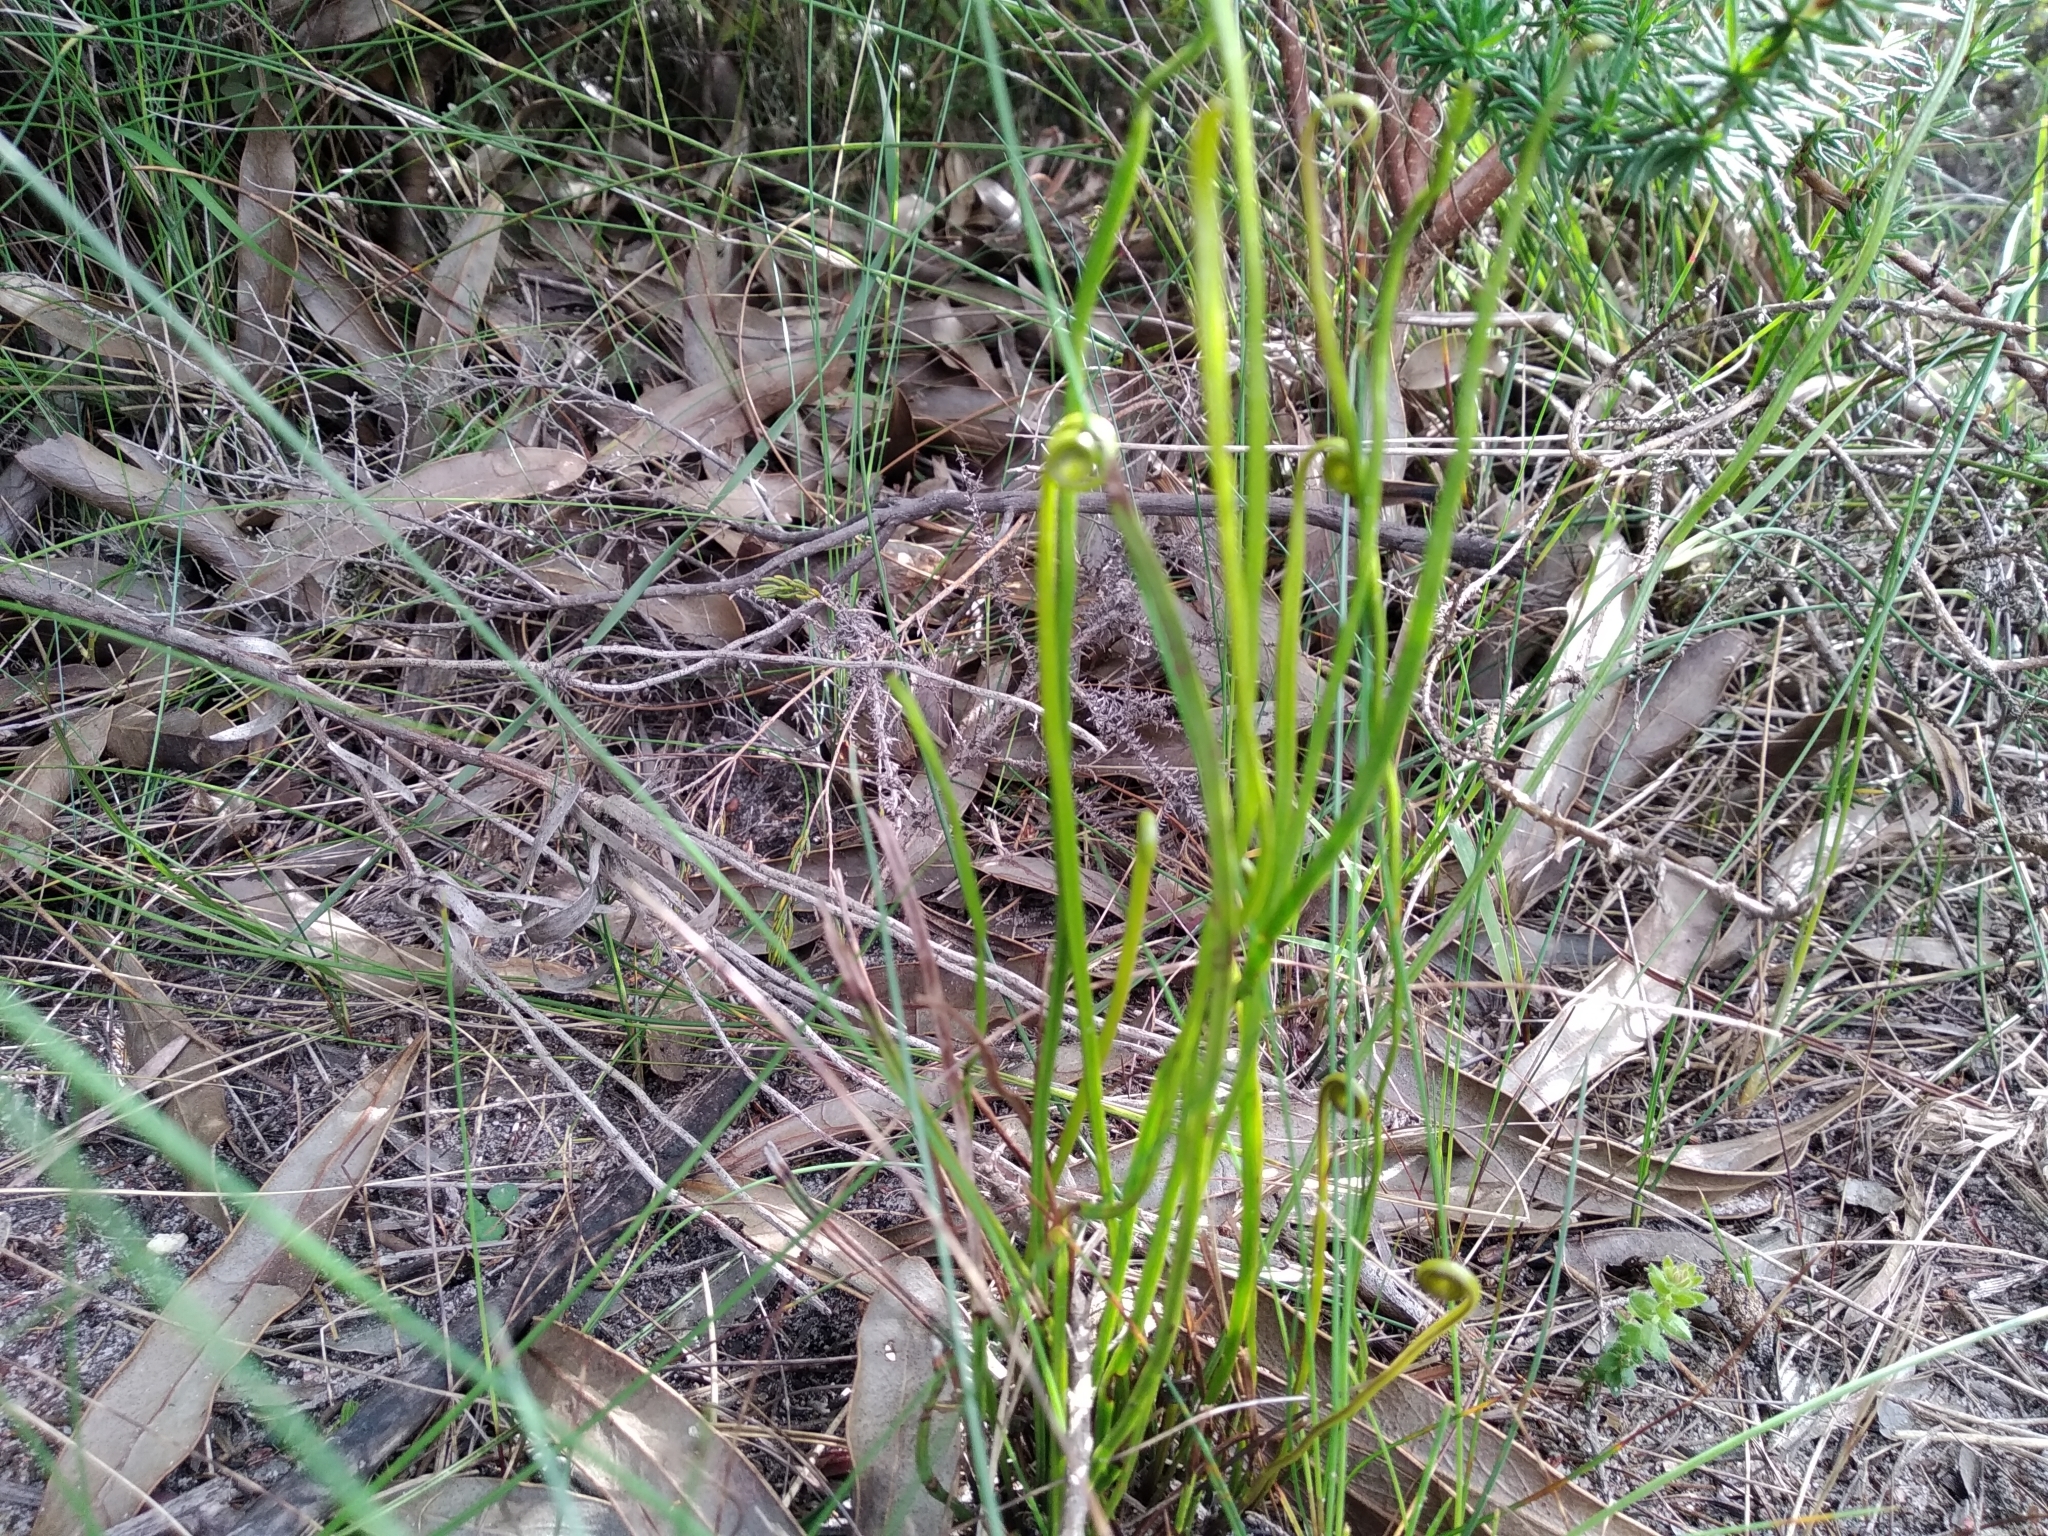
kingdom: Plantae
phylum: Tracheophyta
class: Polypodiopsida
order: Schizaeales
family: Schizaeaceae
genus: Schizaea
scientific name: Schizaea pectinata
